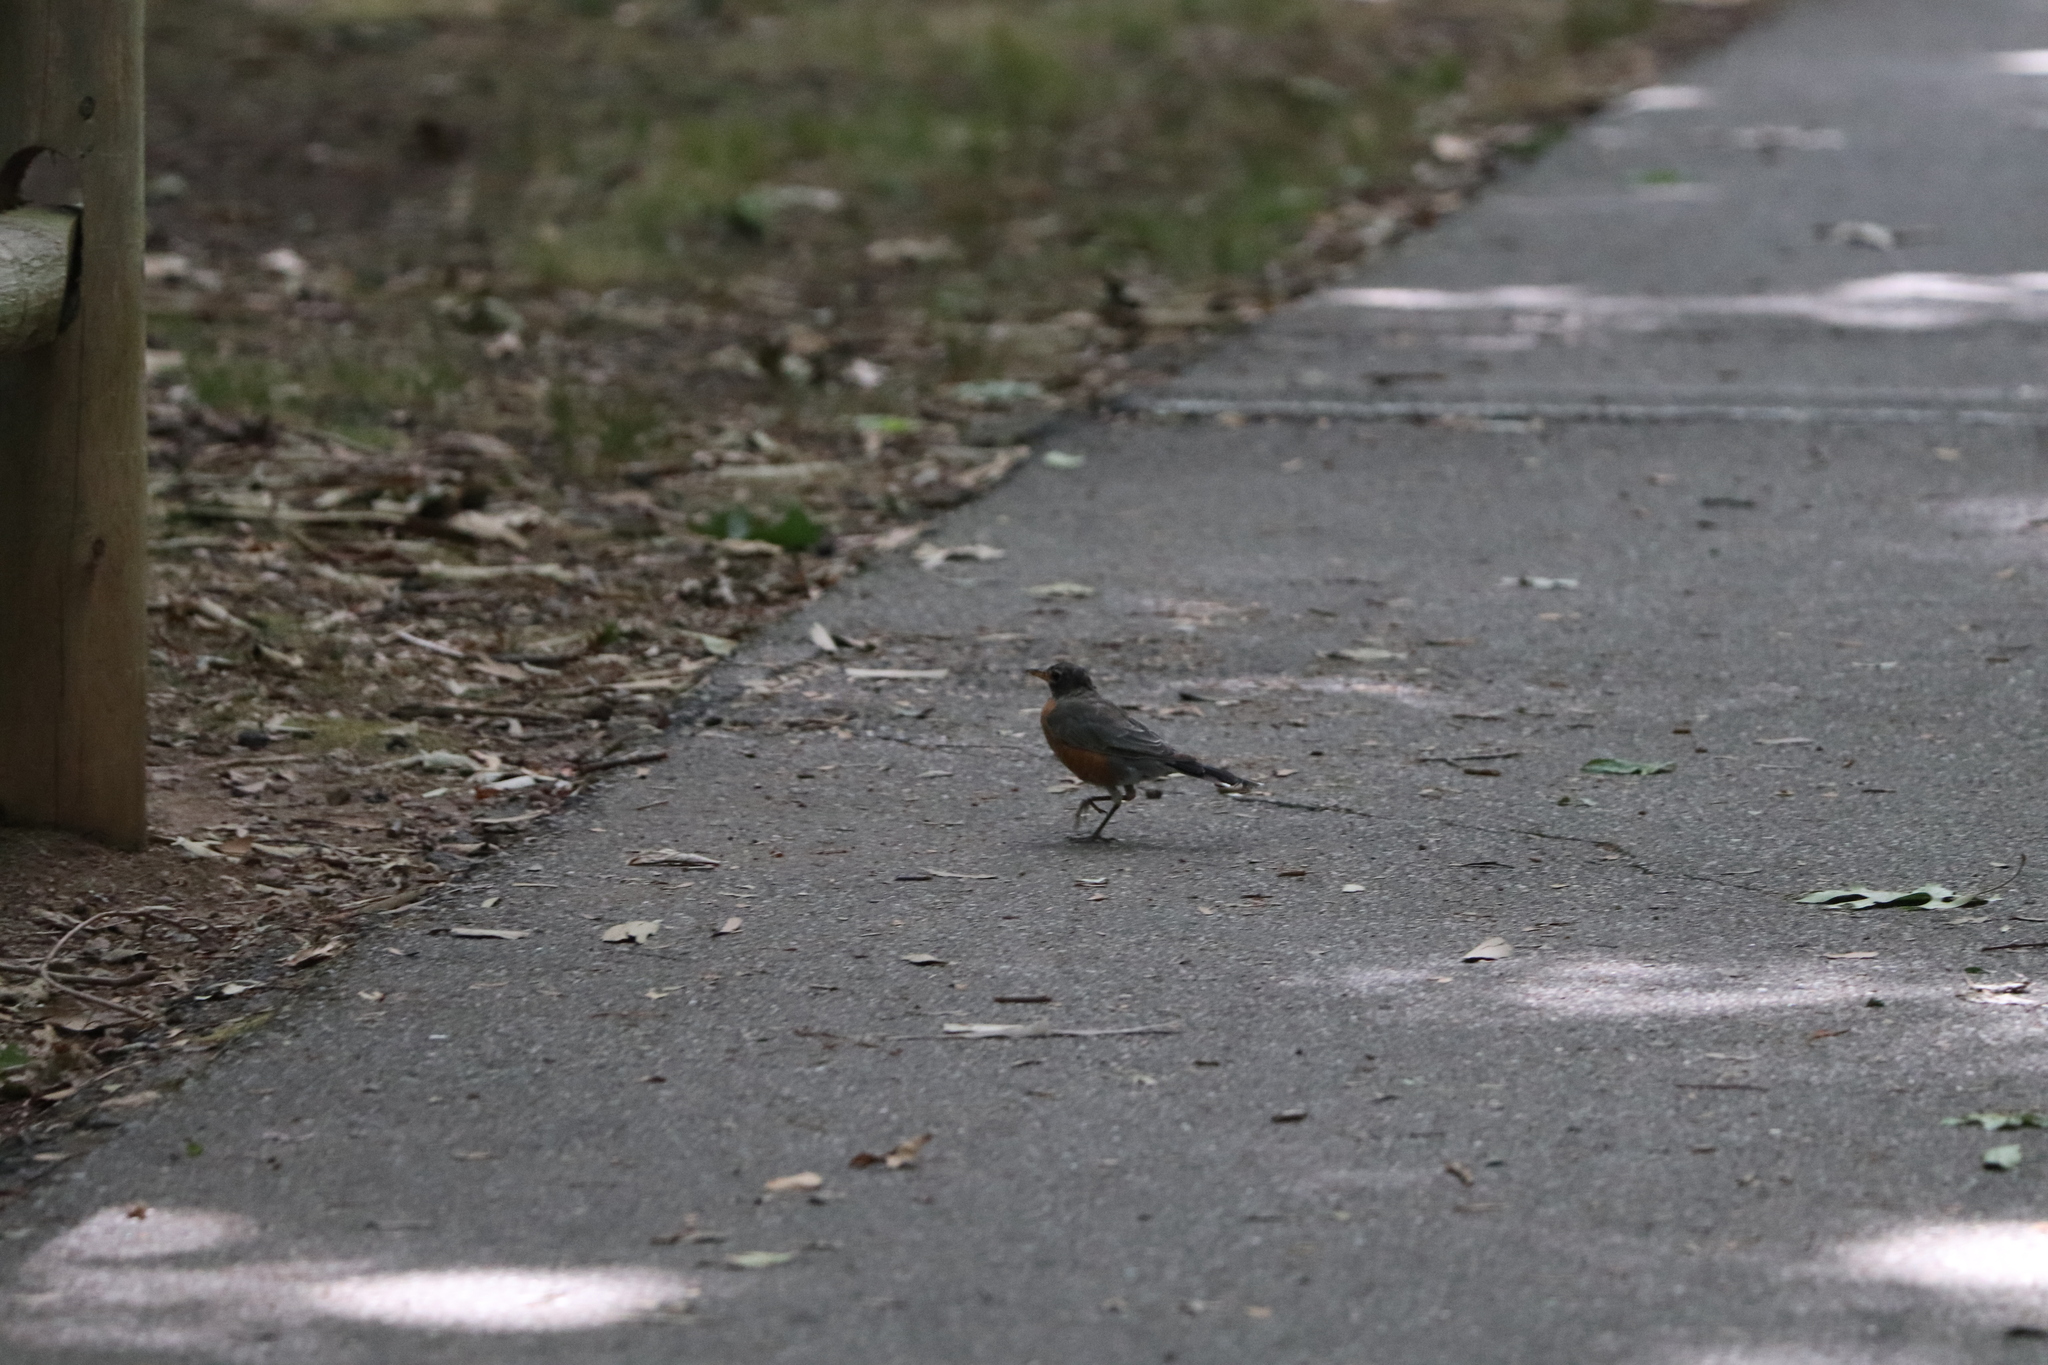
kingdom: Animalia
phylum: Chordata
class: Aves
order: Passeriformes
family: Turdidae
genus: Turdus
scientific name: Turdus migratorius
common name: American robin
